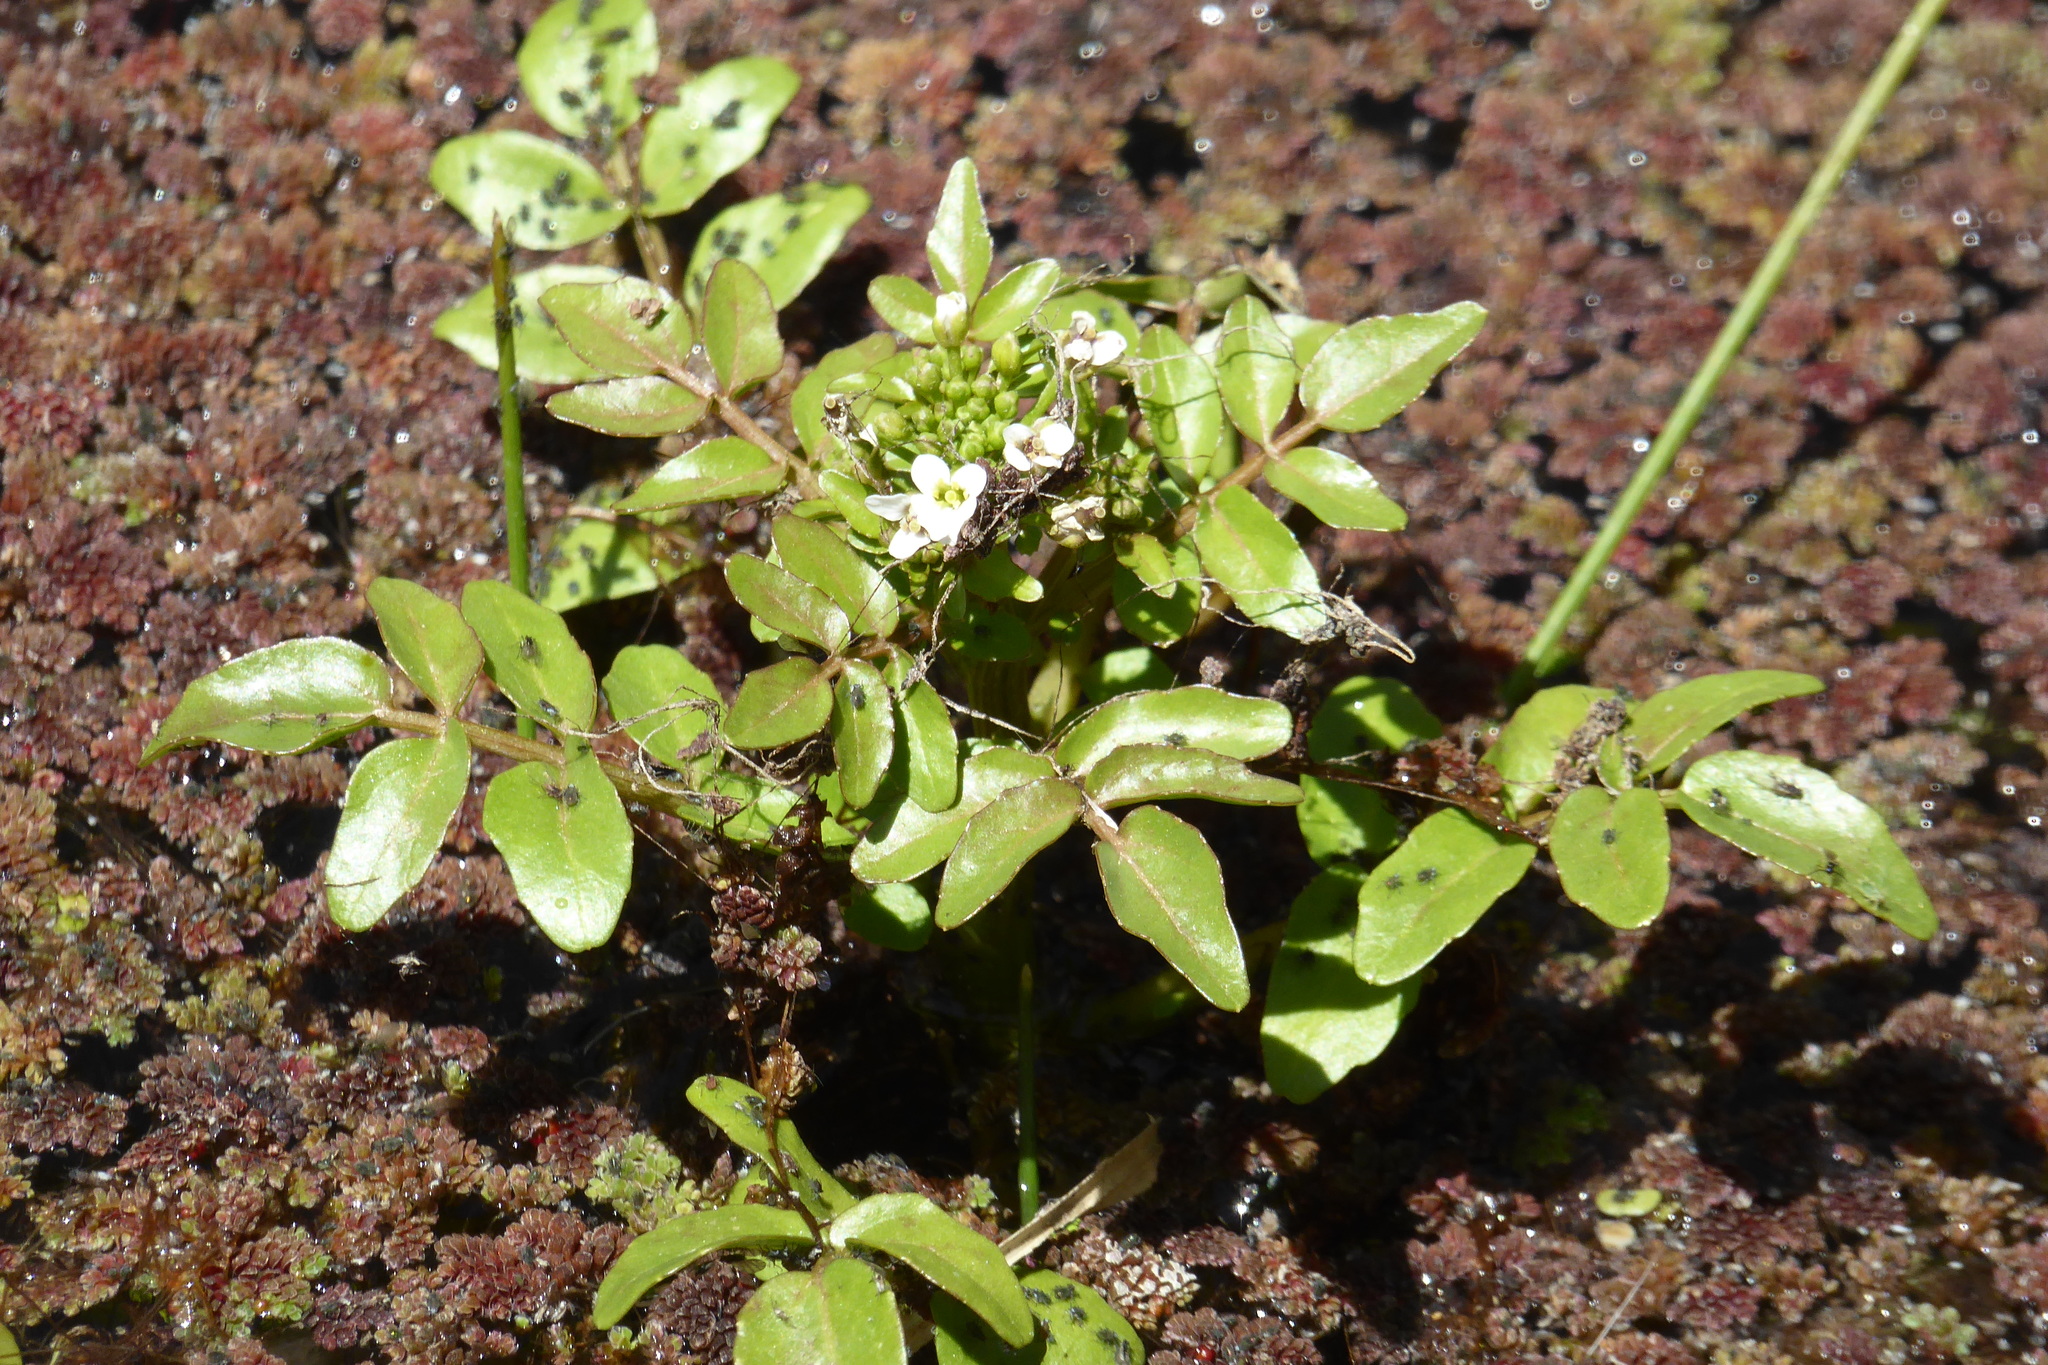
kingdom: Plantae
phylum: Tracheophyta
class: Magnoliopsida
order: Brassicales
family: Brassicaceae
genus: Nasturtium
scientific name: Nasturtium officinale
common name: Watercress
